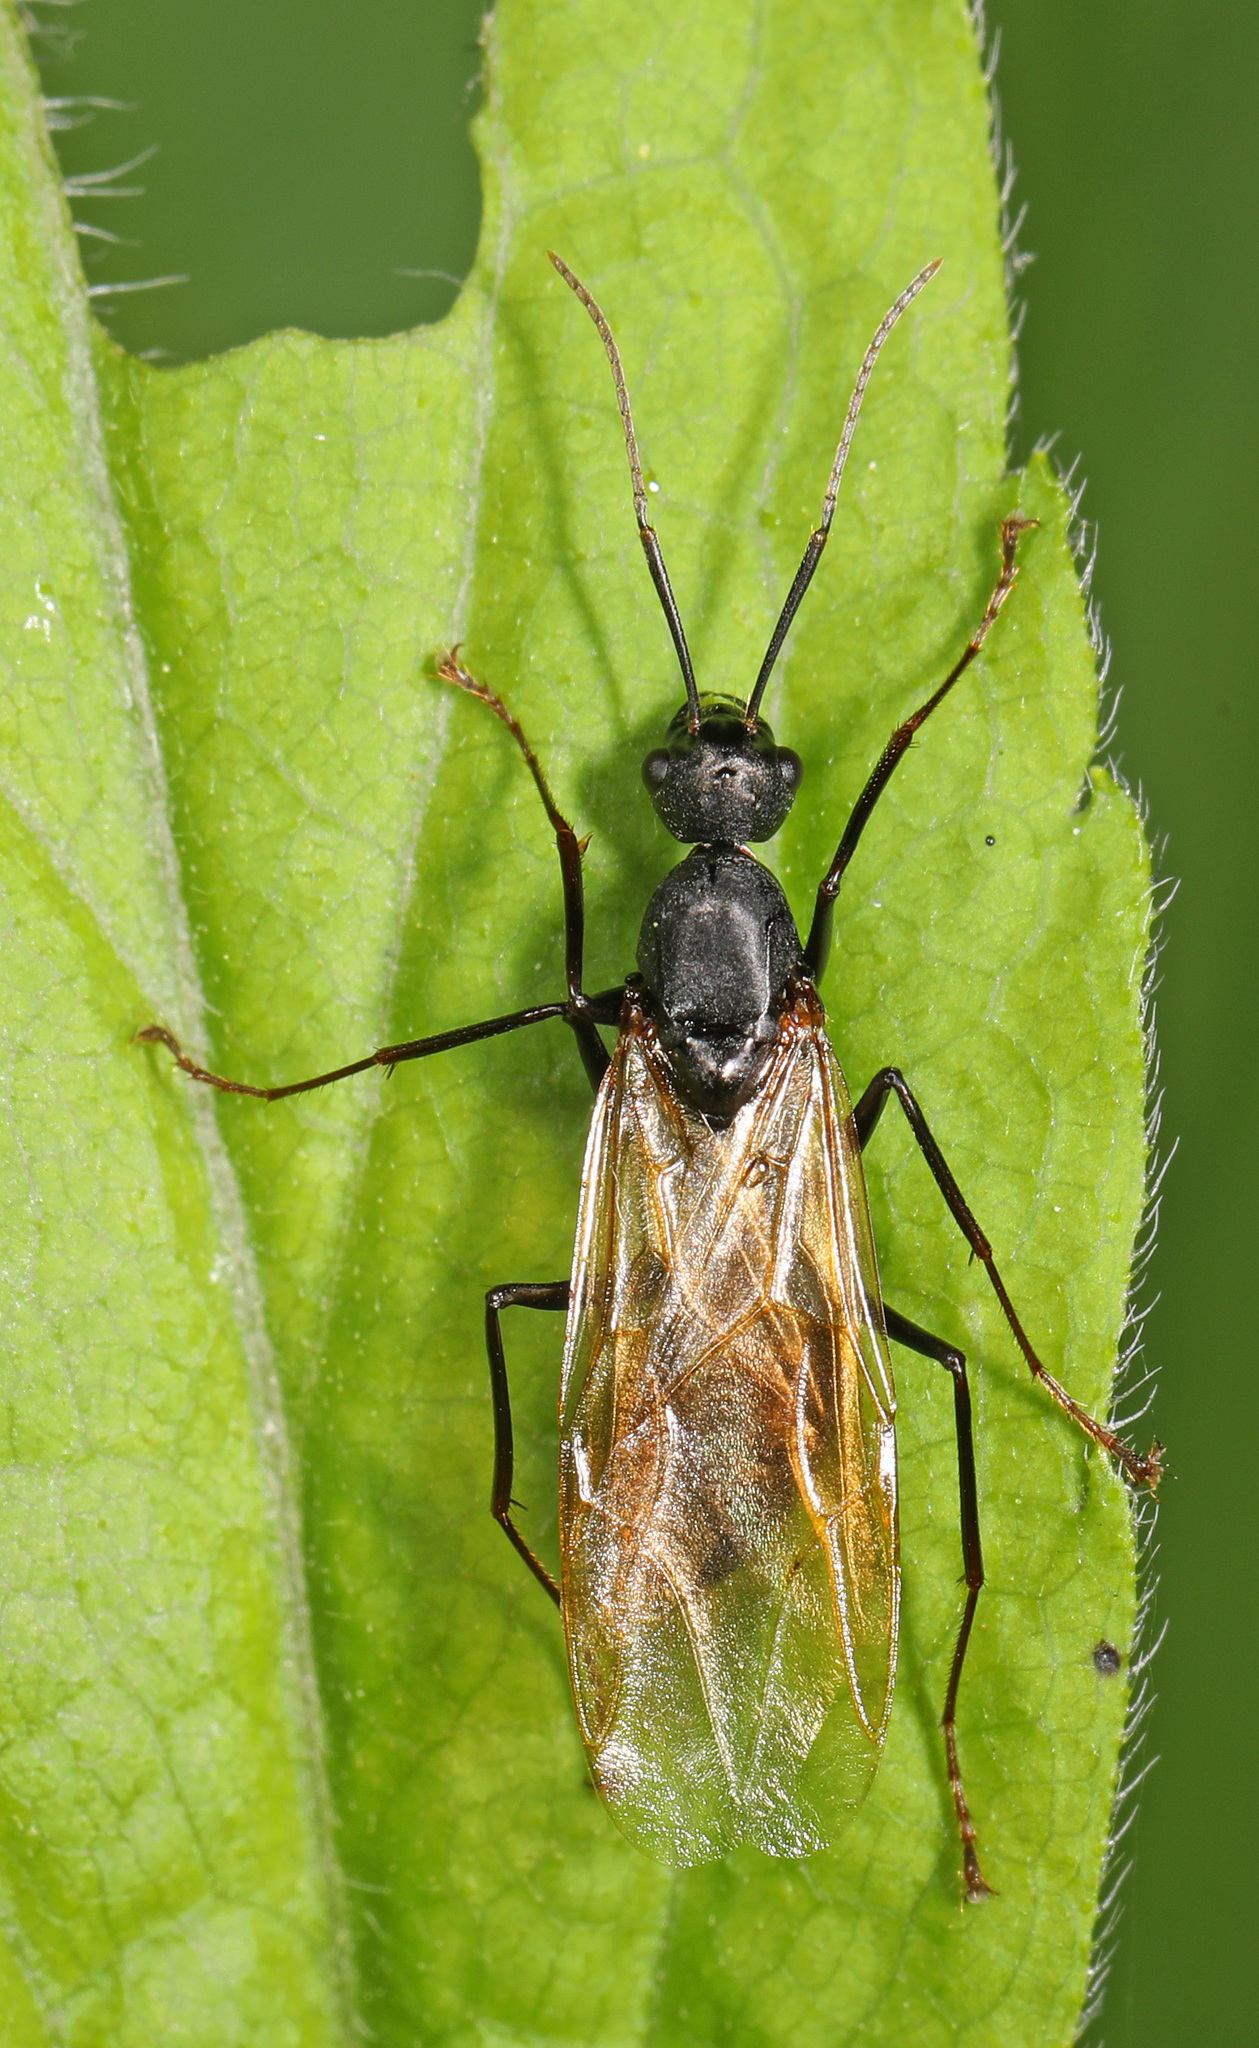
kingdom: Animalia
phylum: Arthropoda
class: Insecta
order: Hymenoptera
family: Formicidae
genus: Camponotus
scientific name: Camponotus pennsylvanicus
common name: Black carpenter ant
